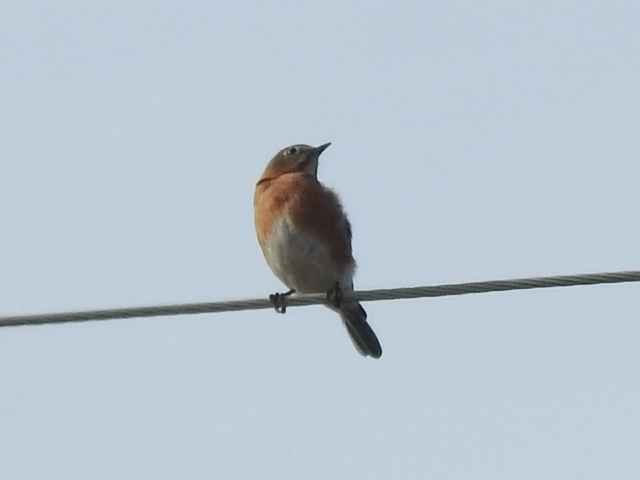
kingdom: Animalia
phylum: Chordata
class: Aves
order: Passeriformes
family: Turdidae
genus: Sialia
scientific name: Sialia sialis
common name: Eastern bluebird
